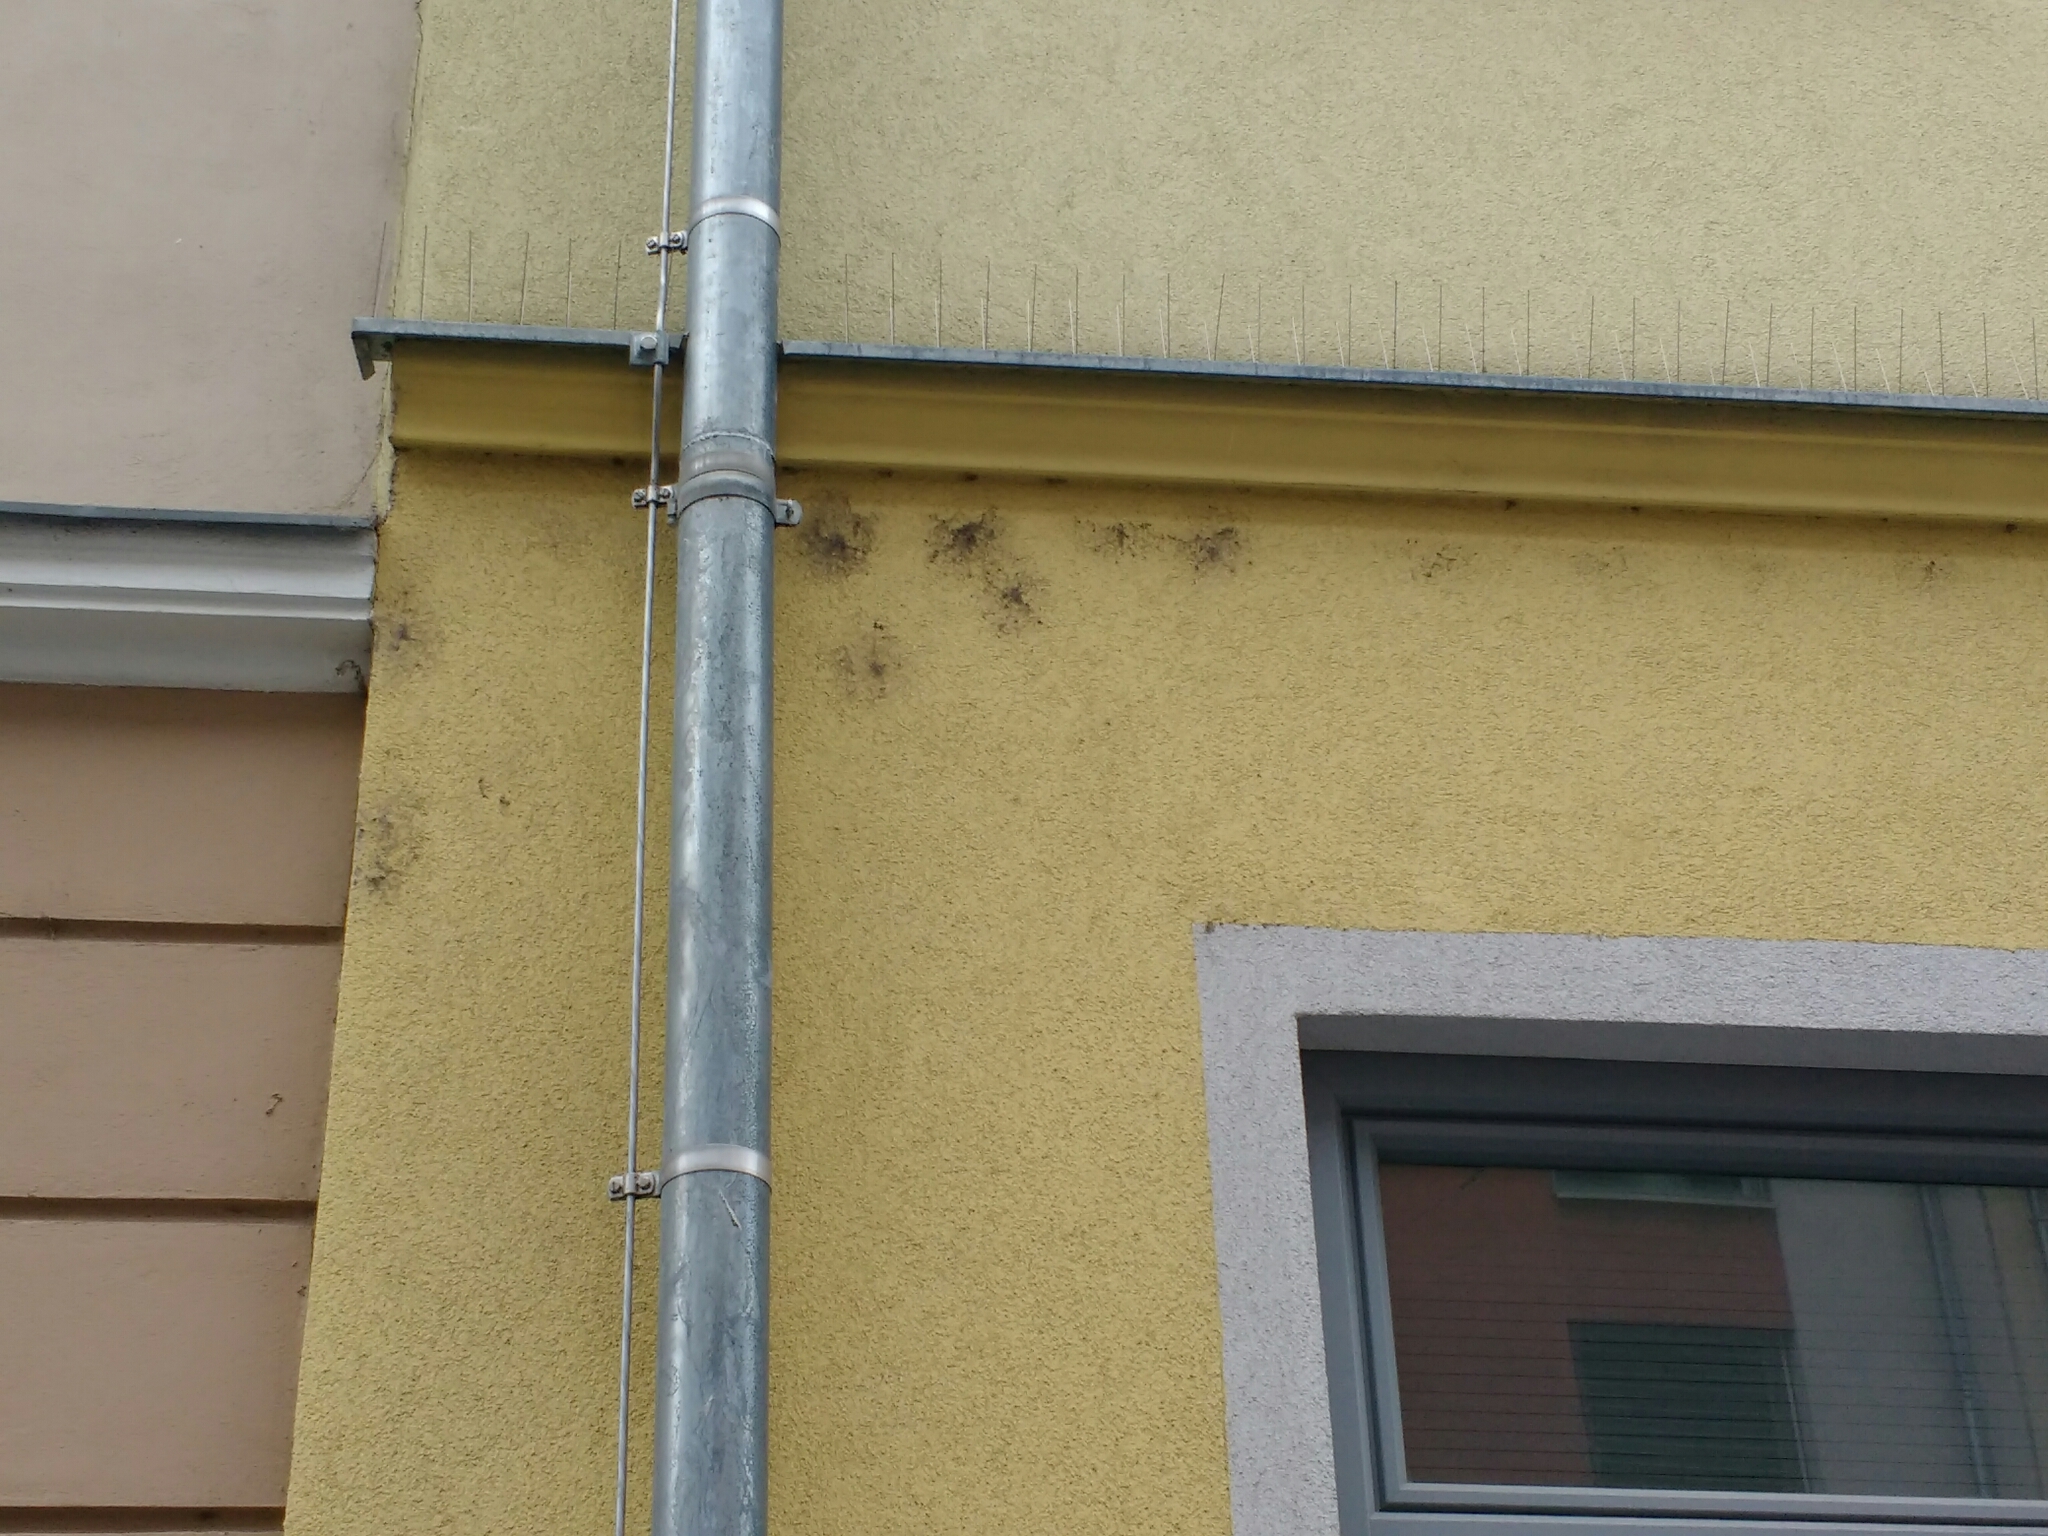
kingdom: Animalia
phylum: Arthropoda
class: Arachnida
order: Araneae
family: Dictynidae
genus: Brigittea
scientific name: Brigittea civica
